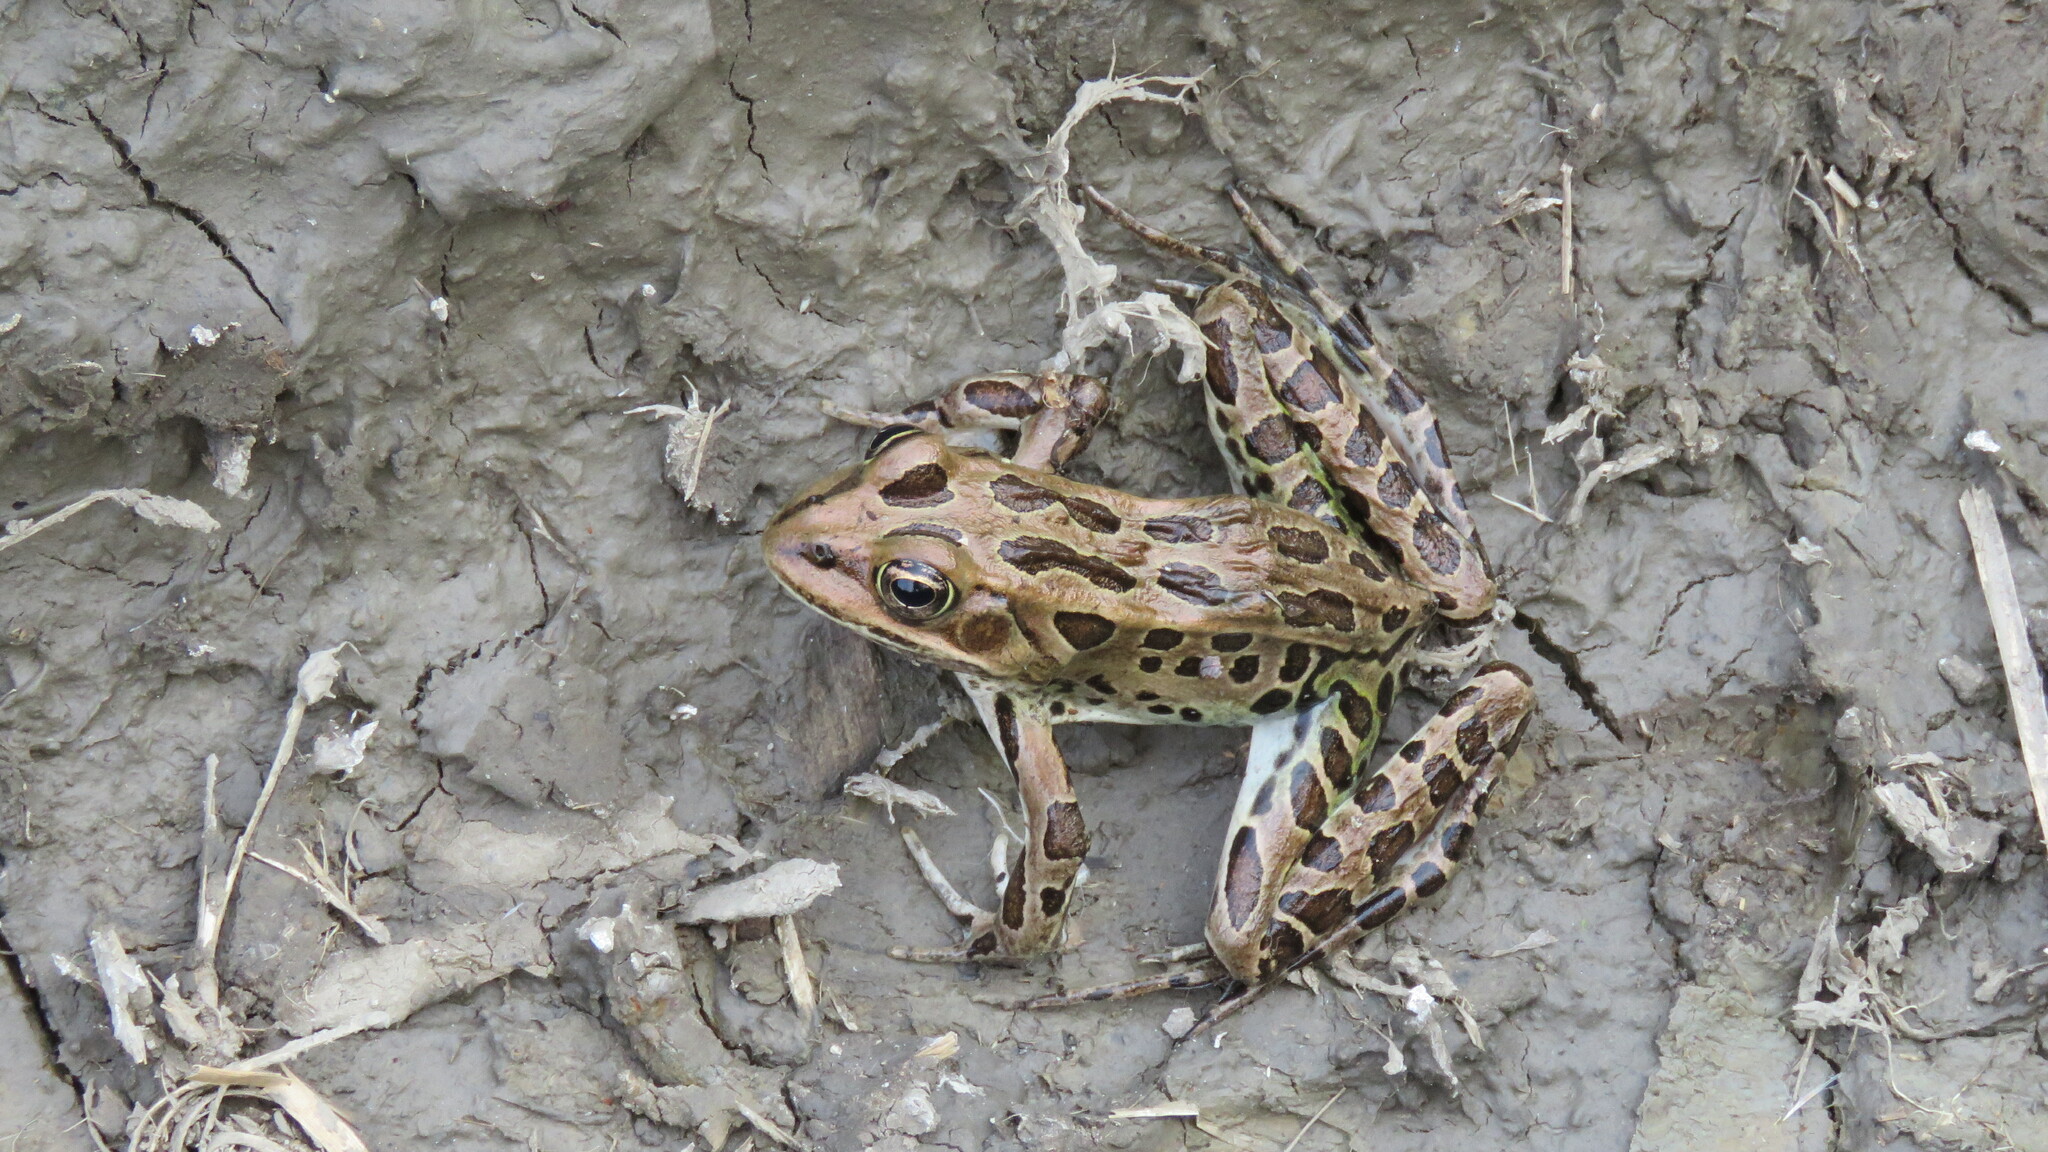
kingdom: Animalia
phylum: Chordata
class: Amphibia
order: Anura
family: Ranidae
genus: Lithobates
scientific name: Lithobates pipiens
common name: Northern leopard frog
